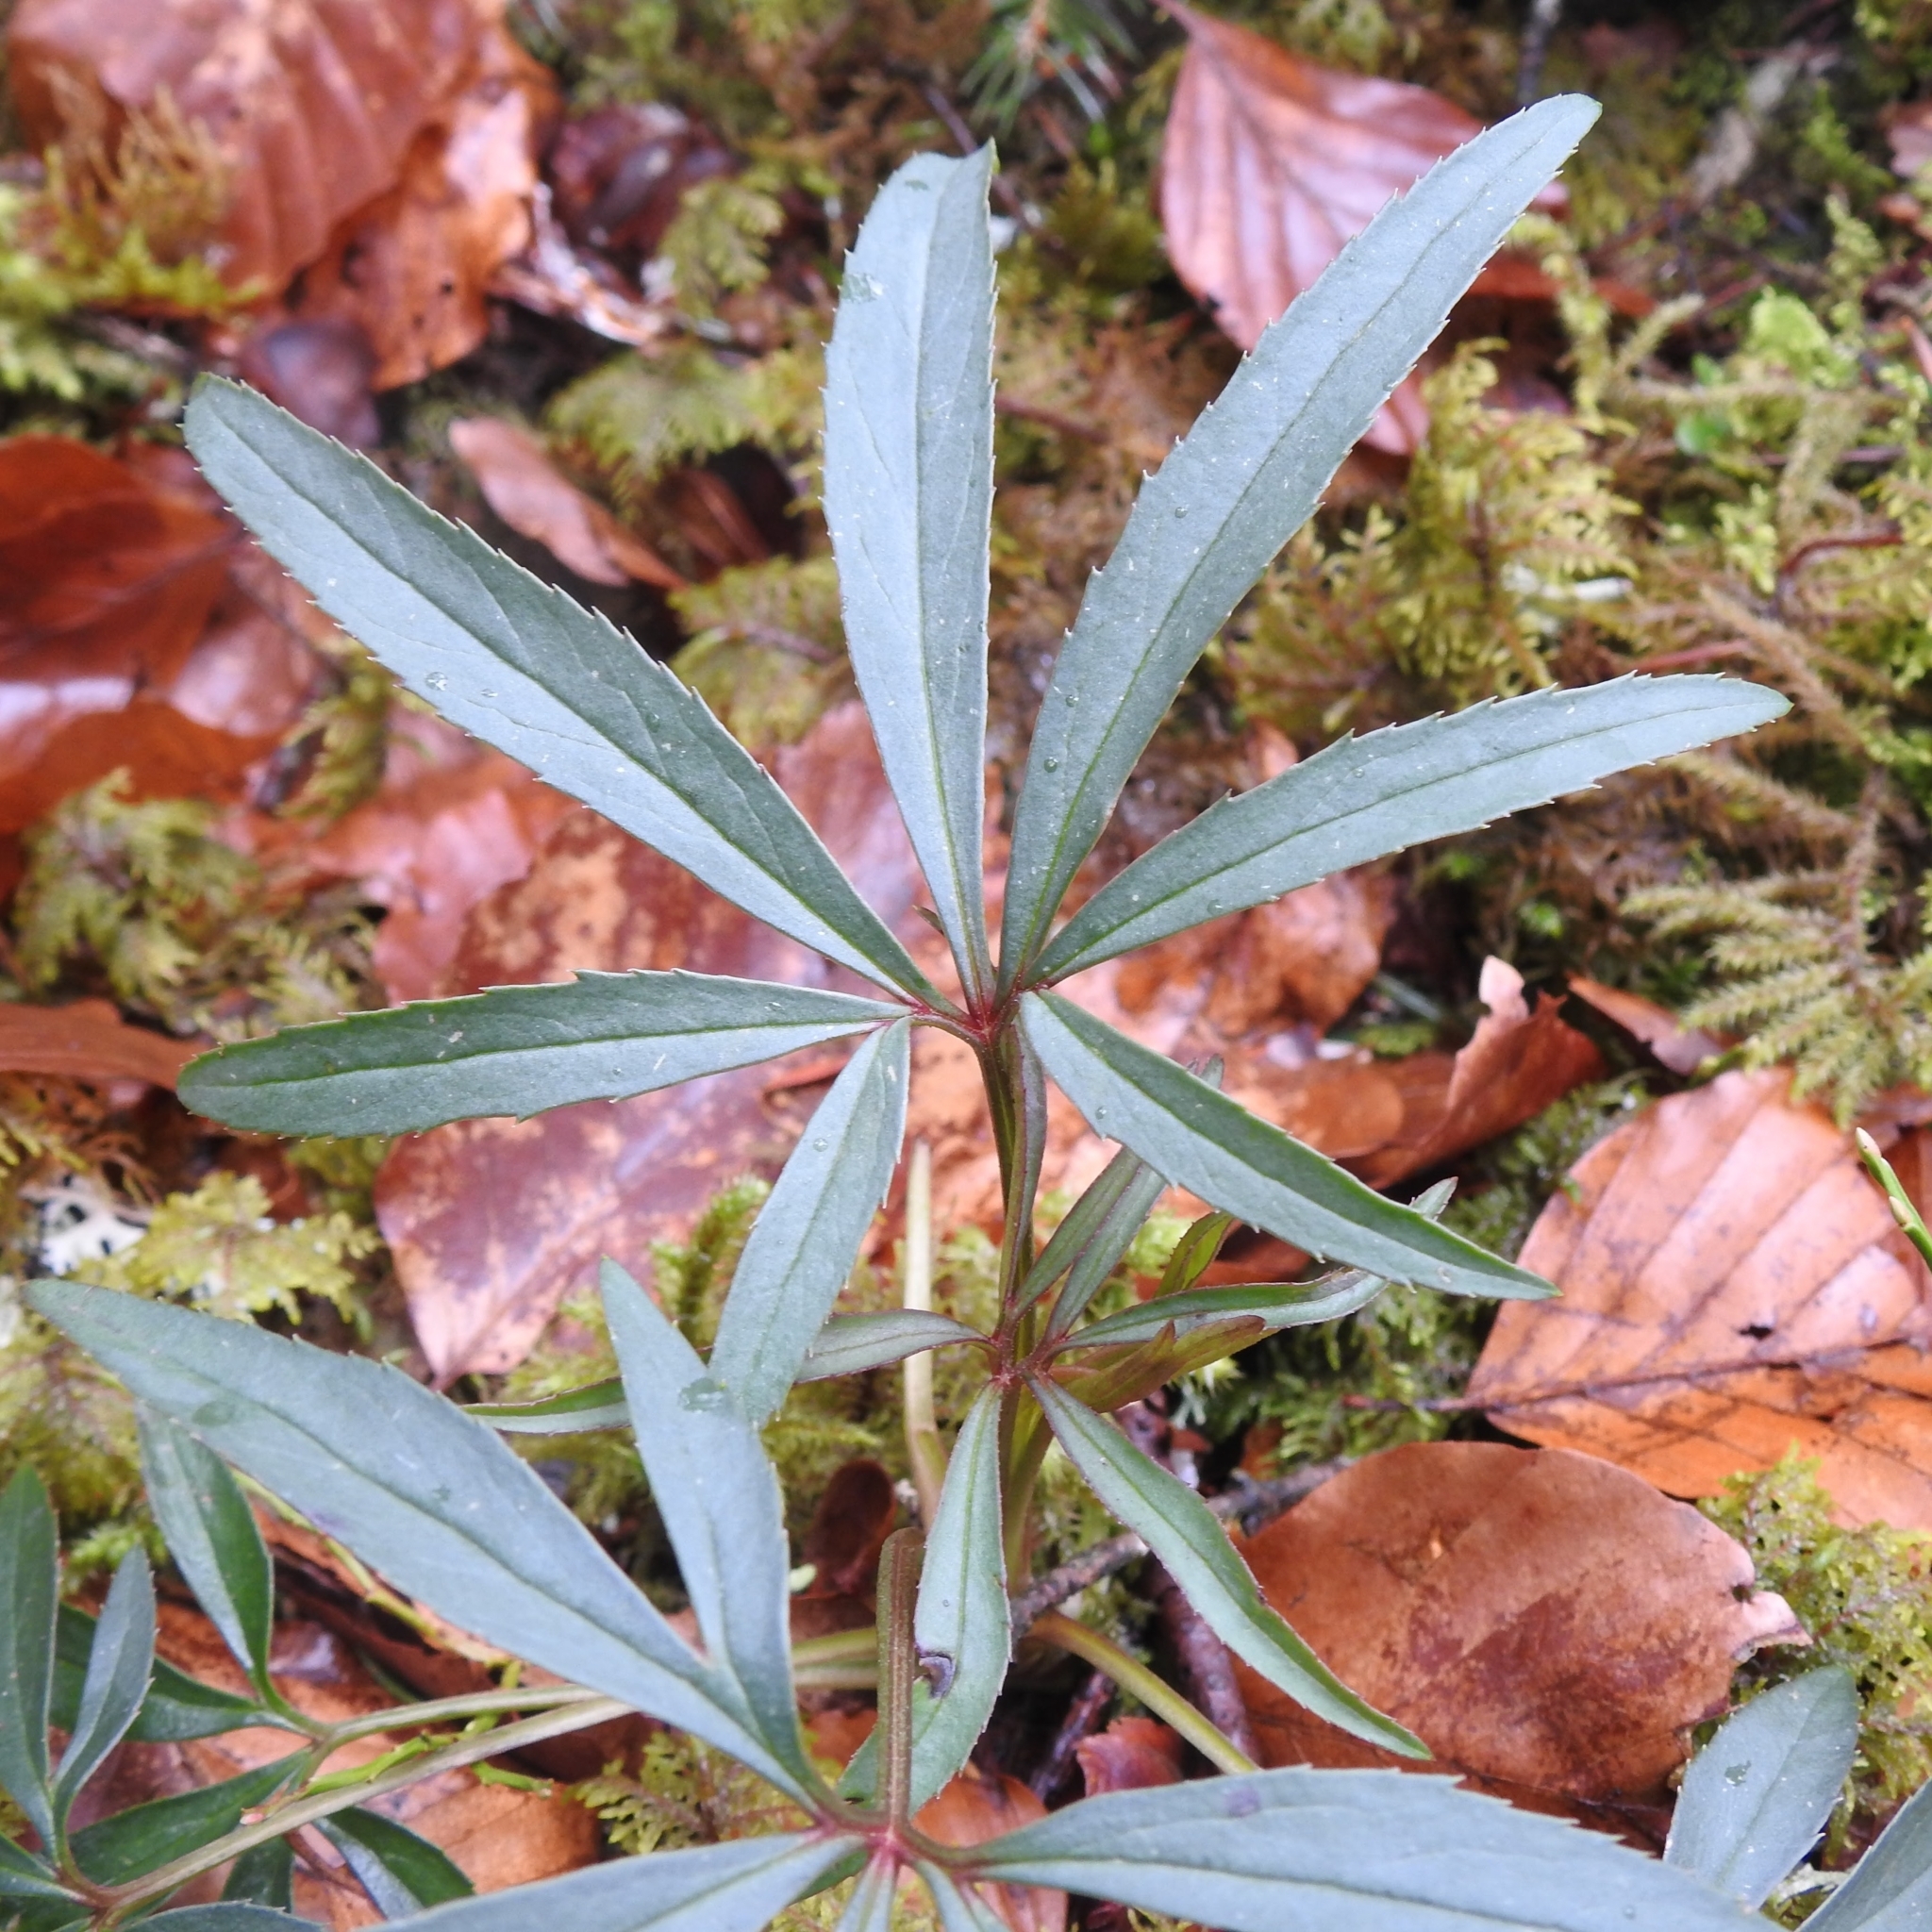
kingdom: Plantae
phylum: Tracheophyta
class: Magnoliopsida
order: Ranunculales
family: Ranunculaceae
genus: Helleborus
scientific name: Helleborus foetidus
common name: Stinking hellebore
